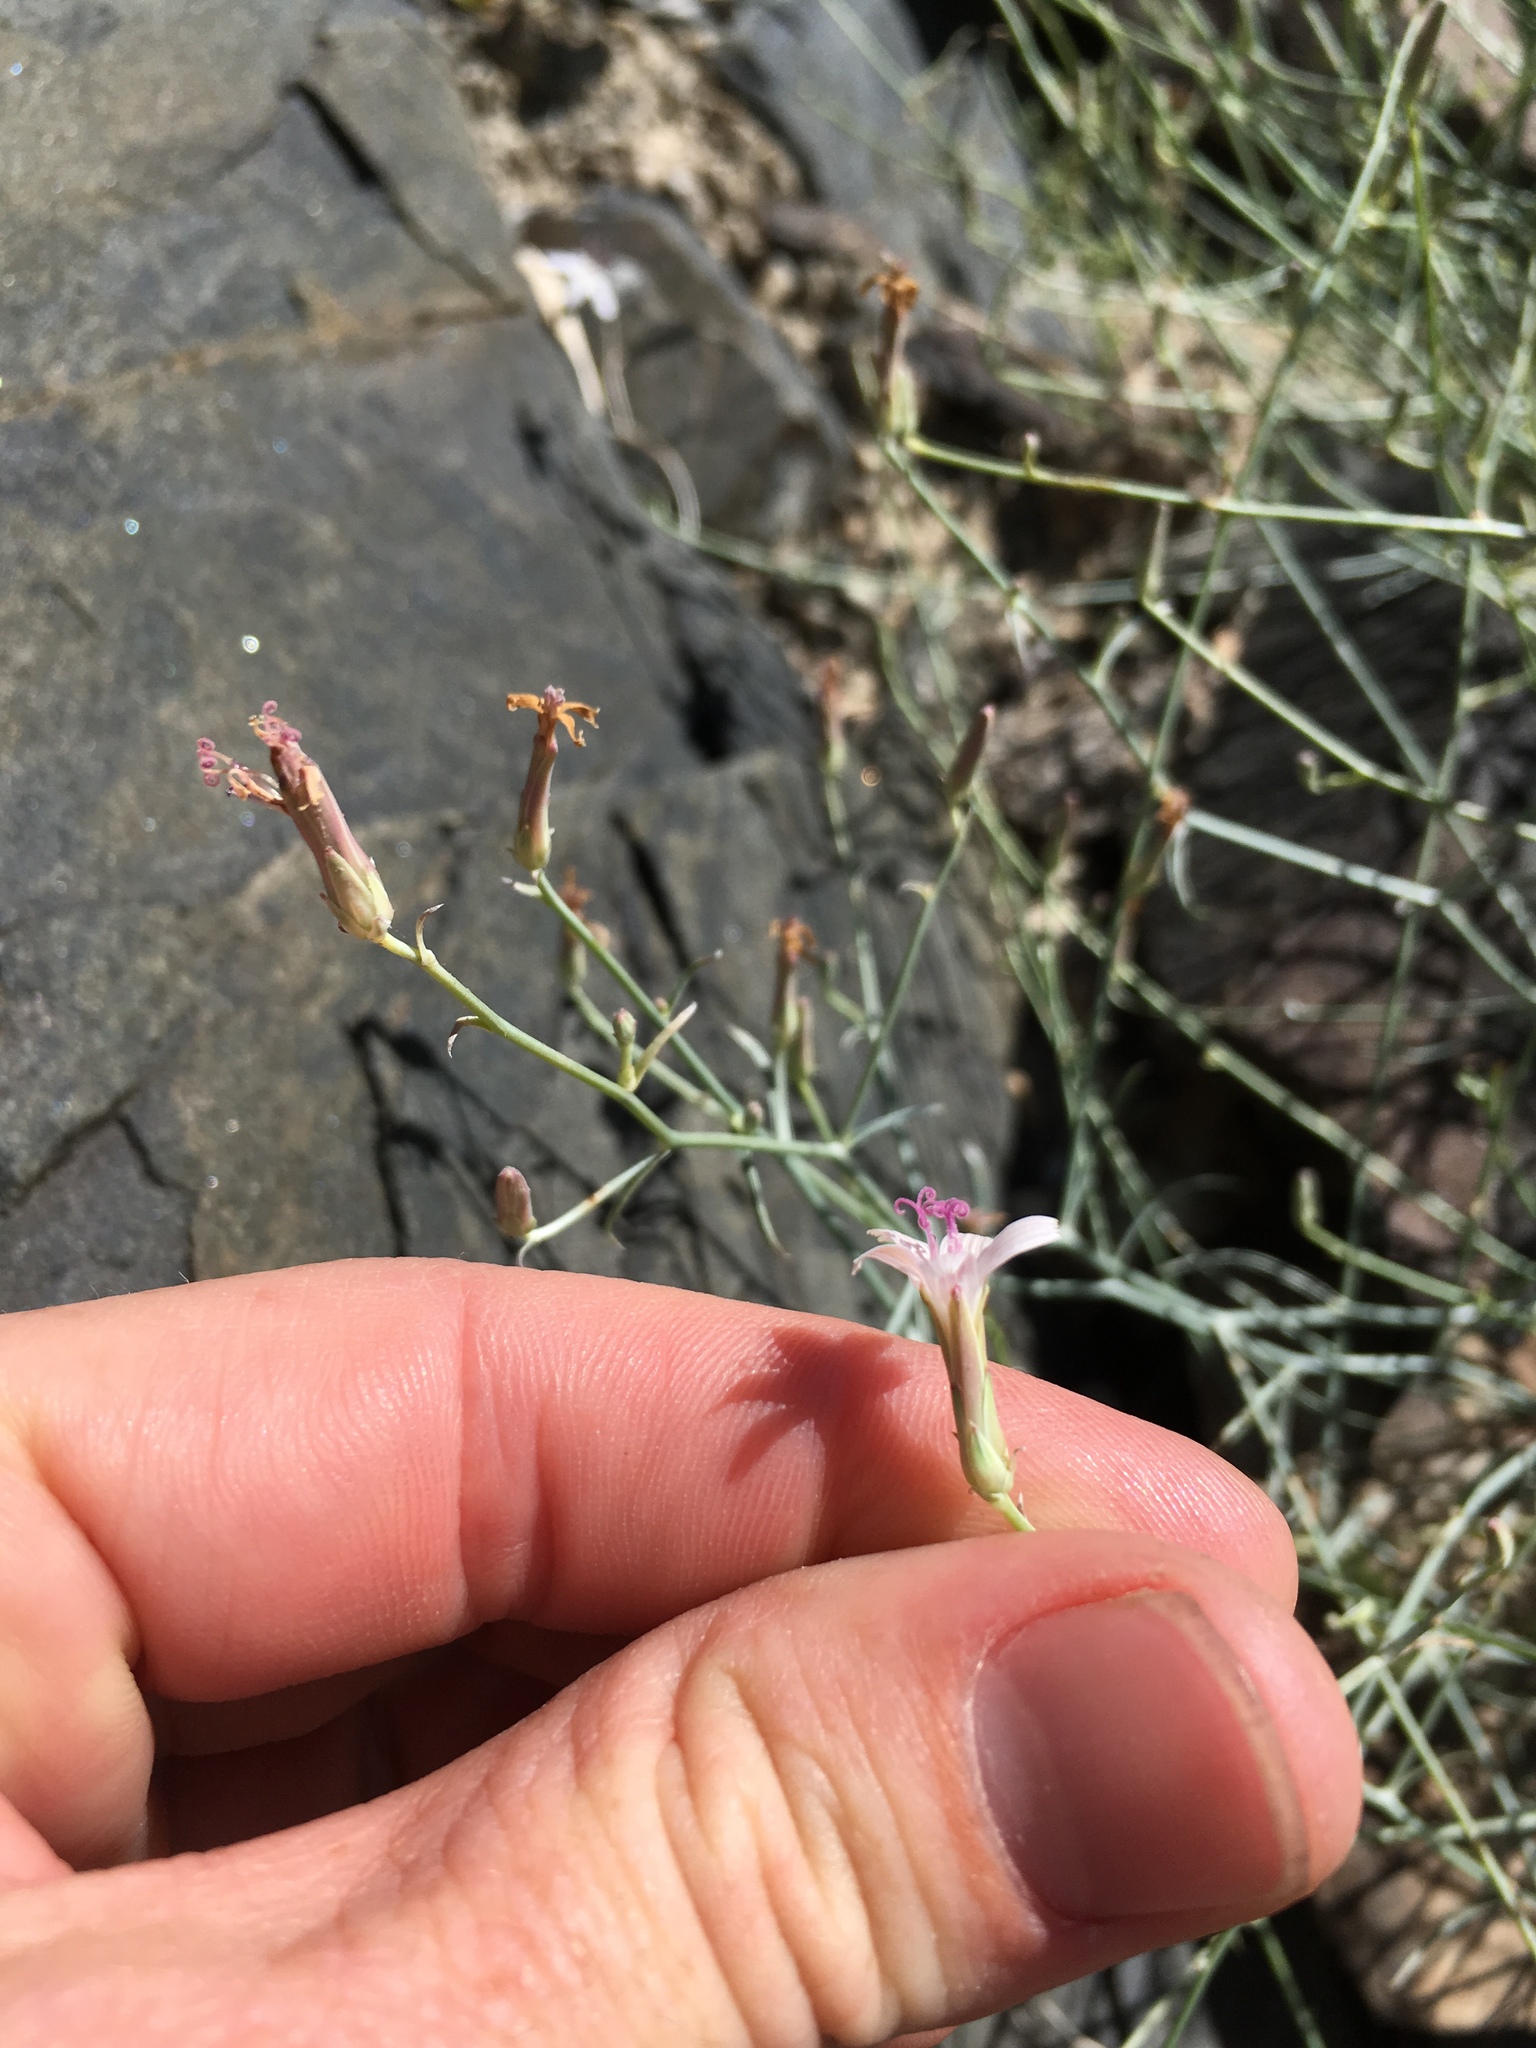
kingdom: Plantae
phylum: Tracheophyta
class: Magnoliopsida
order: Asterales
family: Asteraceae
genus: Stephanomeria
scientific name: Stephanomeria pauciflora
